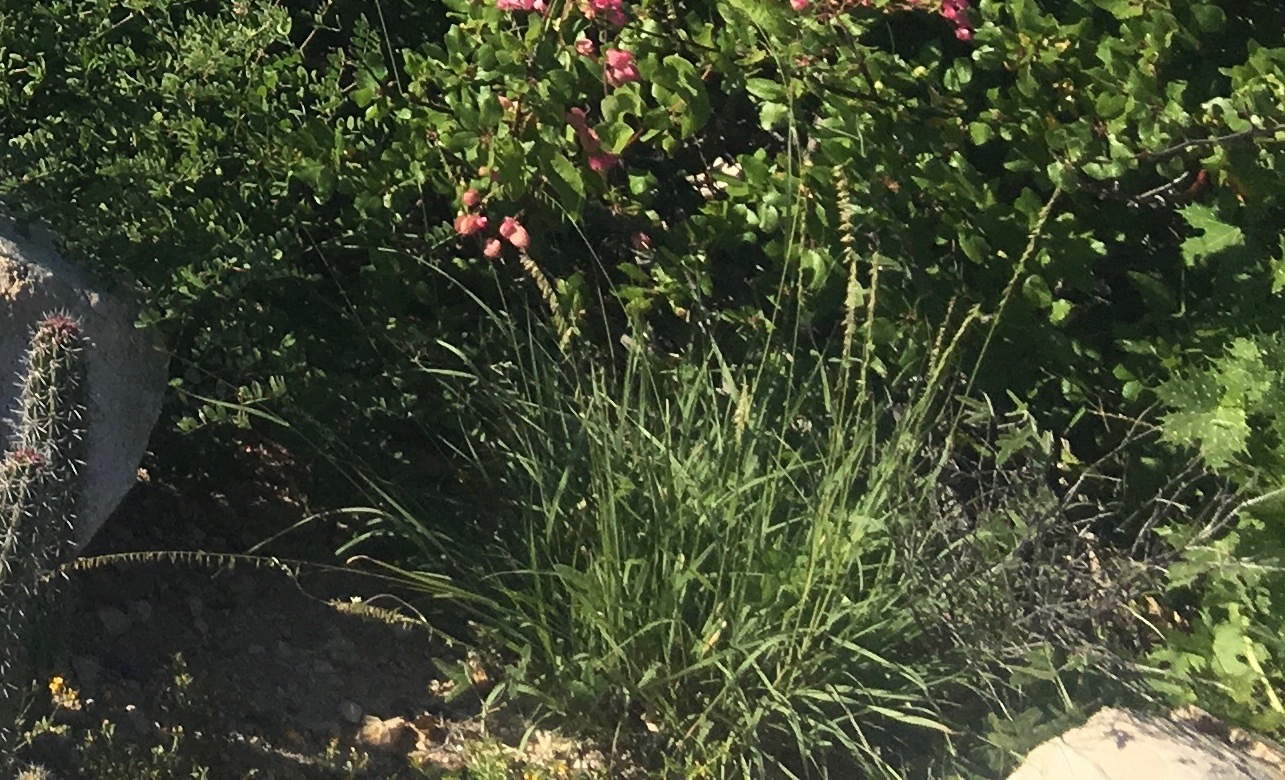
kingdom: Plantae
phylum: Tracheophyta
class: Liliopsida
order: Poales
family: Poaceae
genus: Bouteloua
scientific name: Bouteloua reflexa
